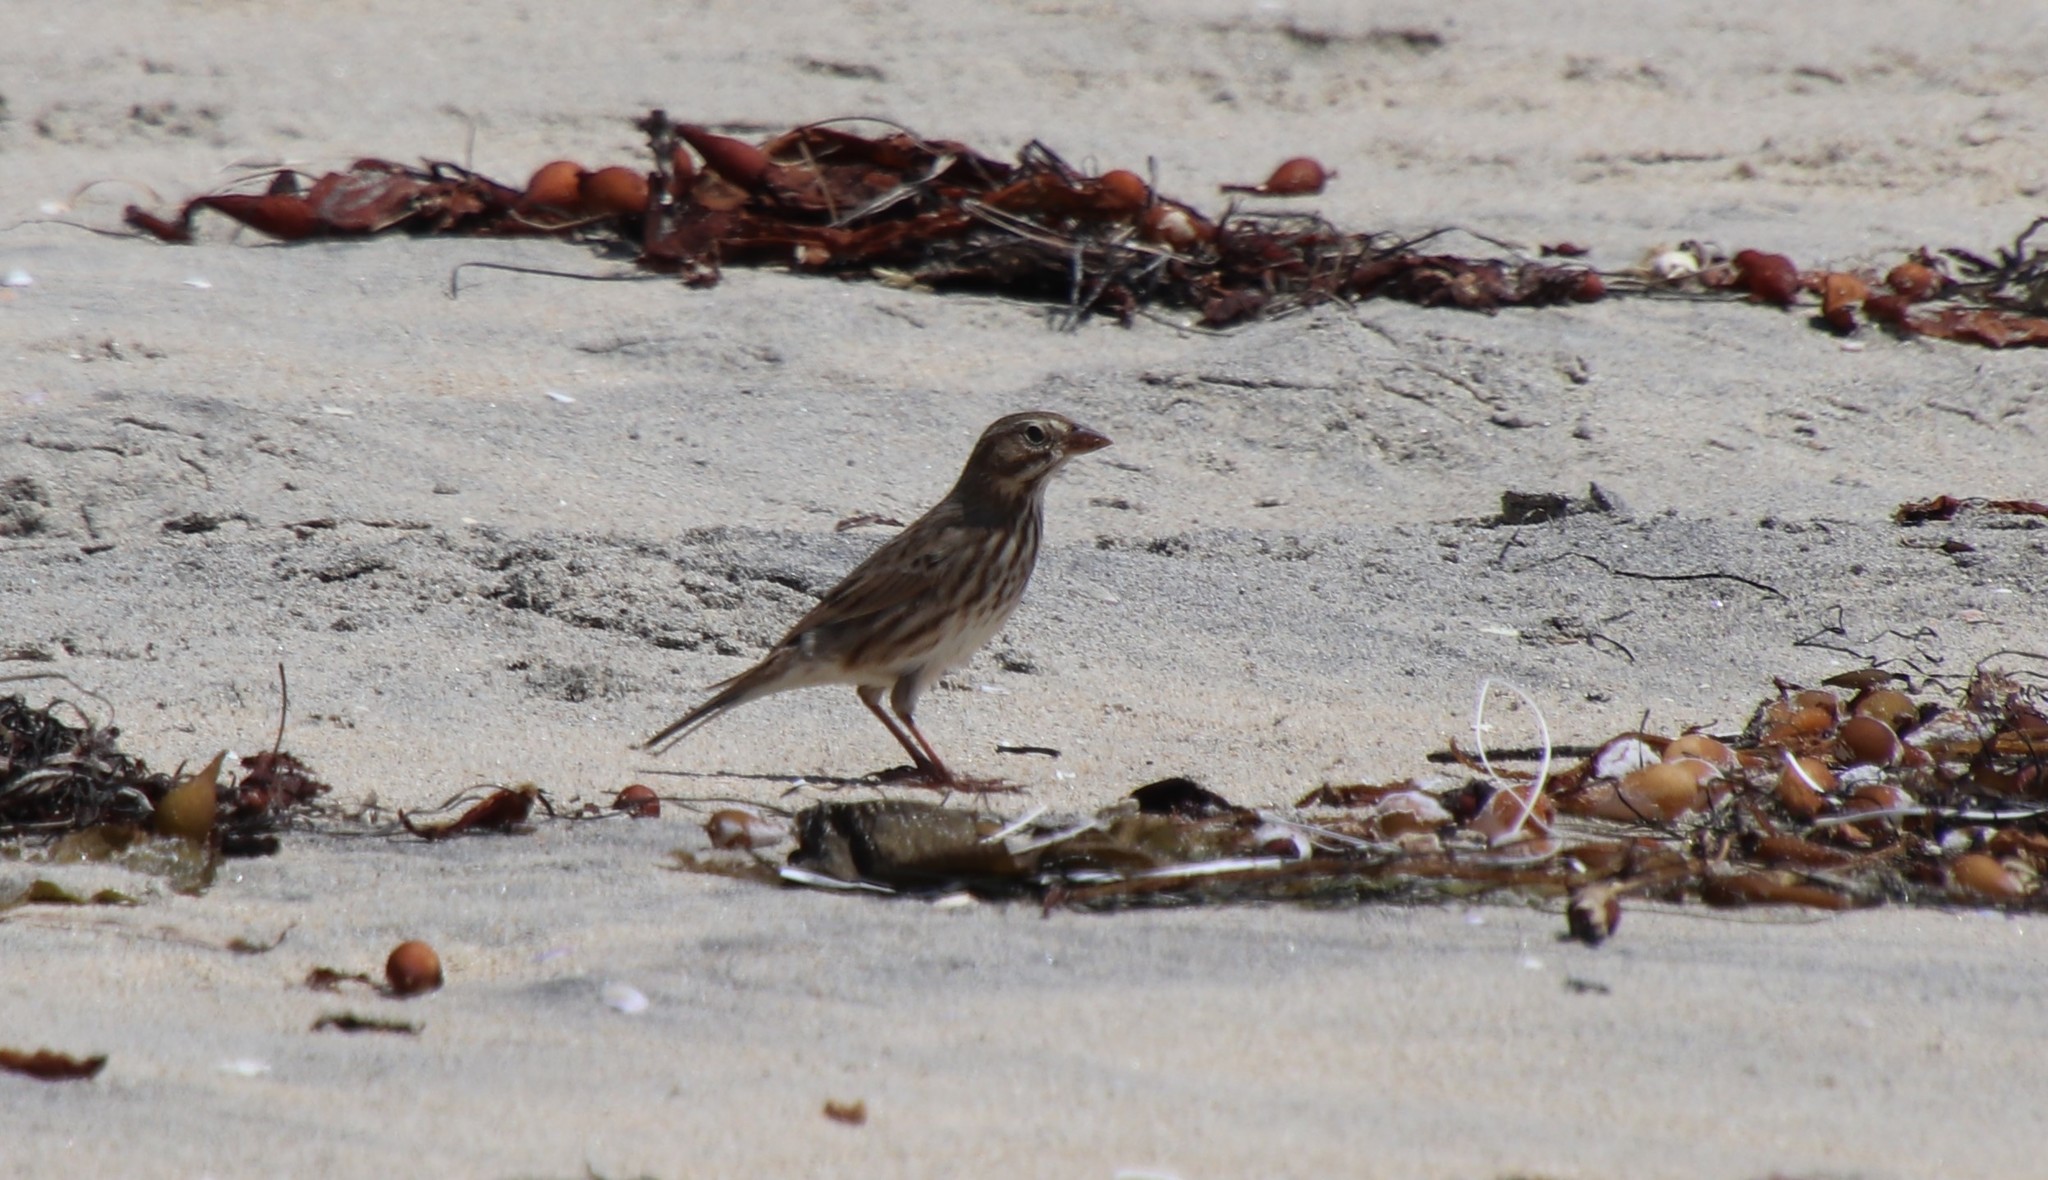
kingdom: Animalia
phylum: Chordata
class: Aves
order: Passeriformes
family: Passerellidae
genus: Passerculus
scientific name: Passerculus sandwichensis
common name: Savannah sparrow
